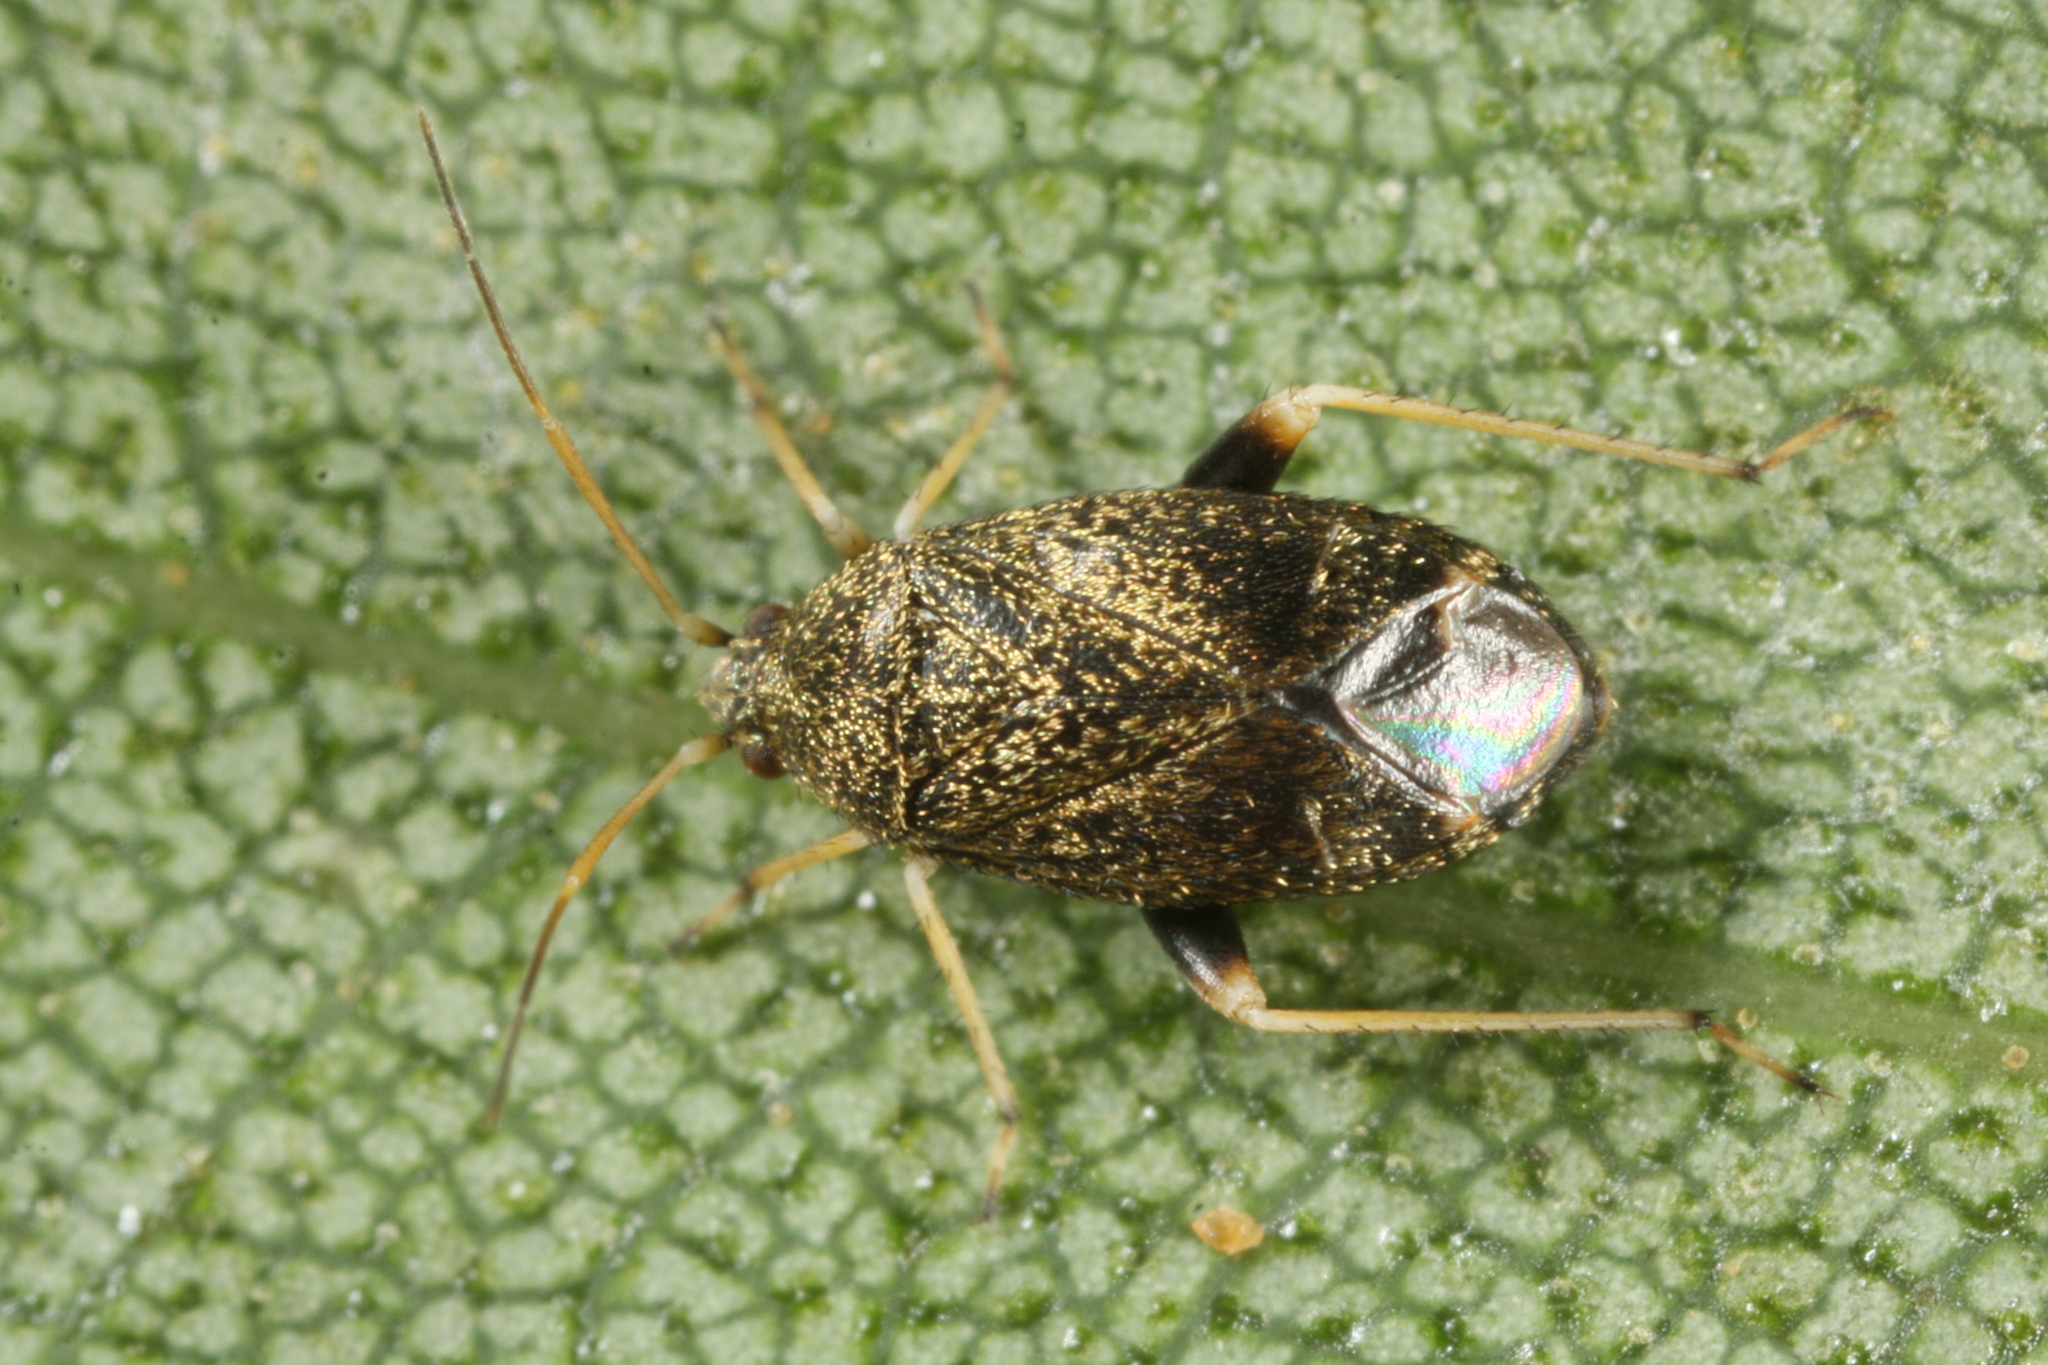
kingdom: Animalia
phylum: Arthropoda
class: Insecta
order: Hemiptera
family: Miridae
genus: Criocoris
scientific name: Criocoris crassicornis
